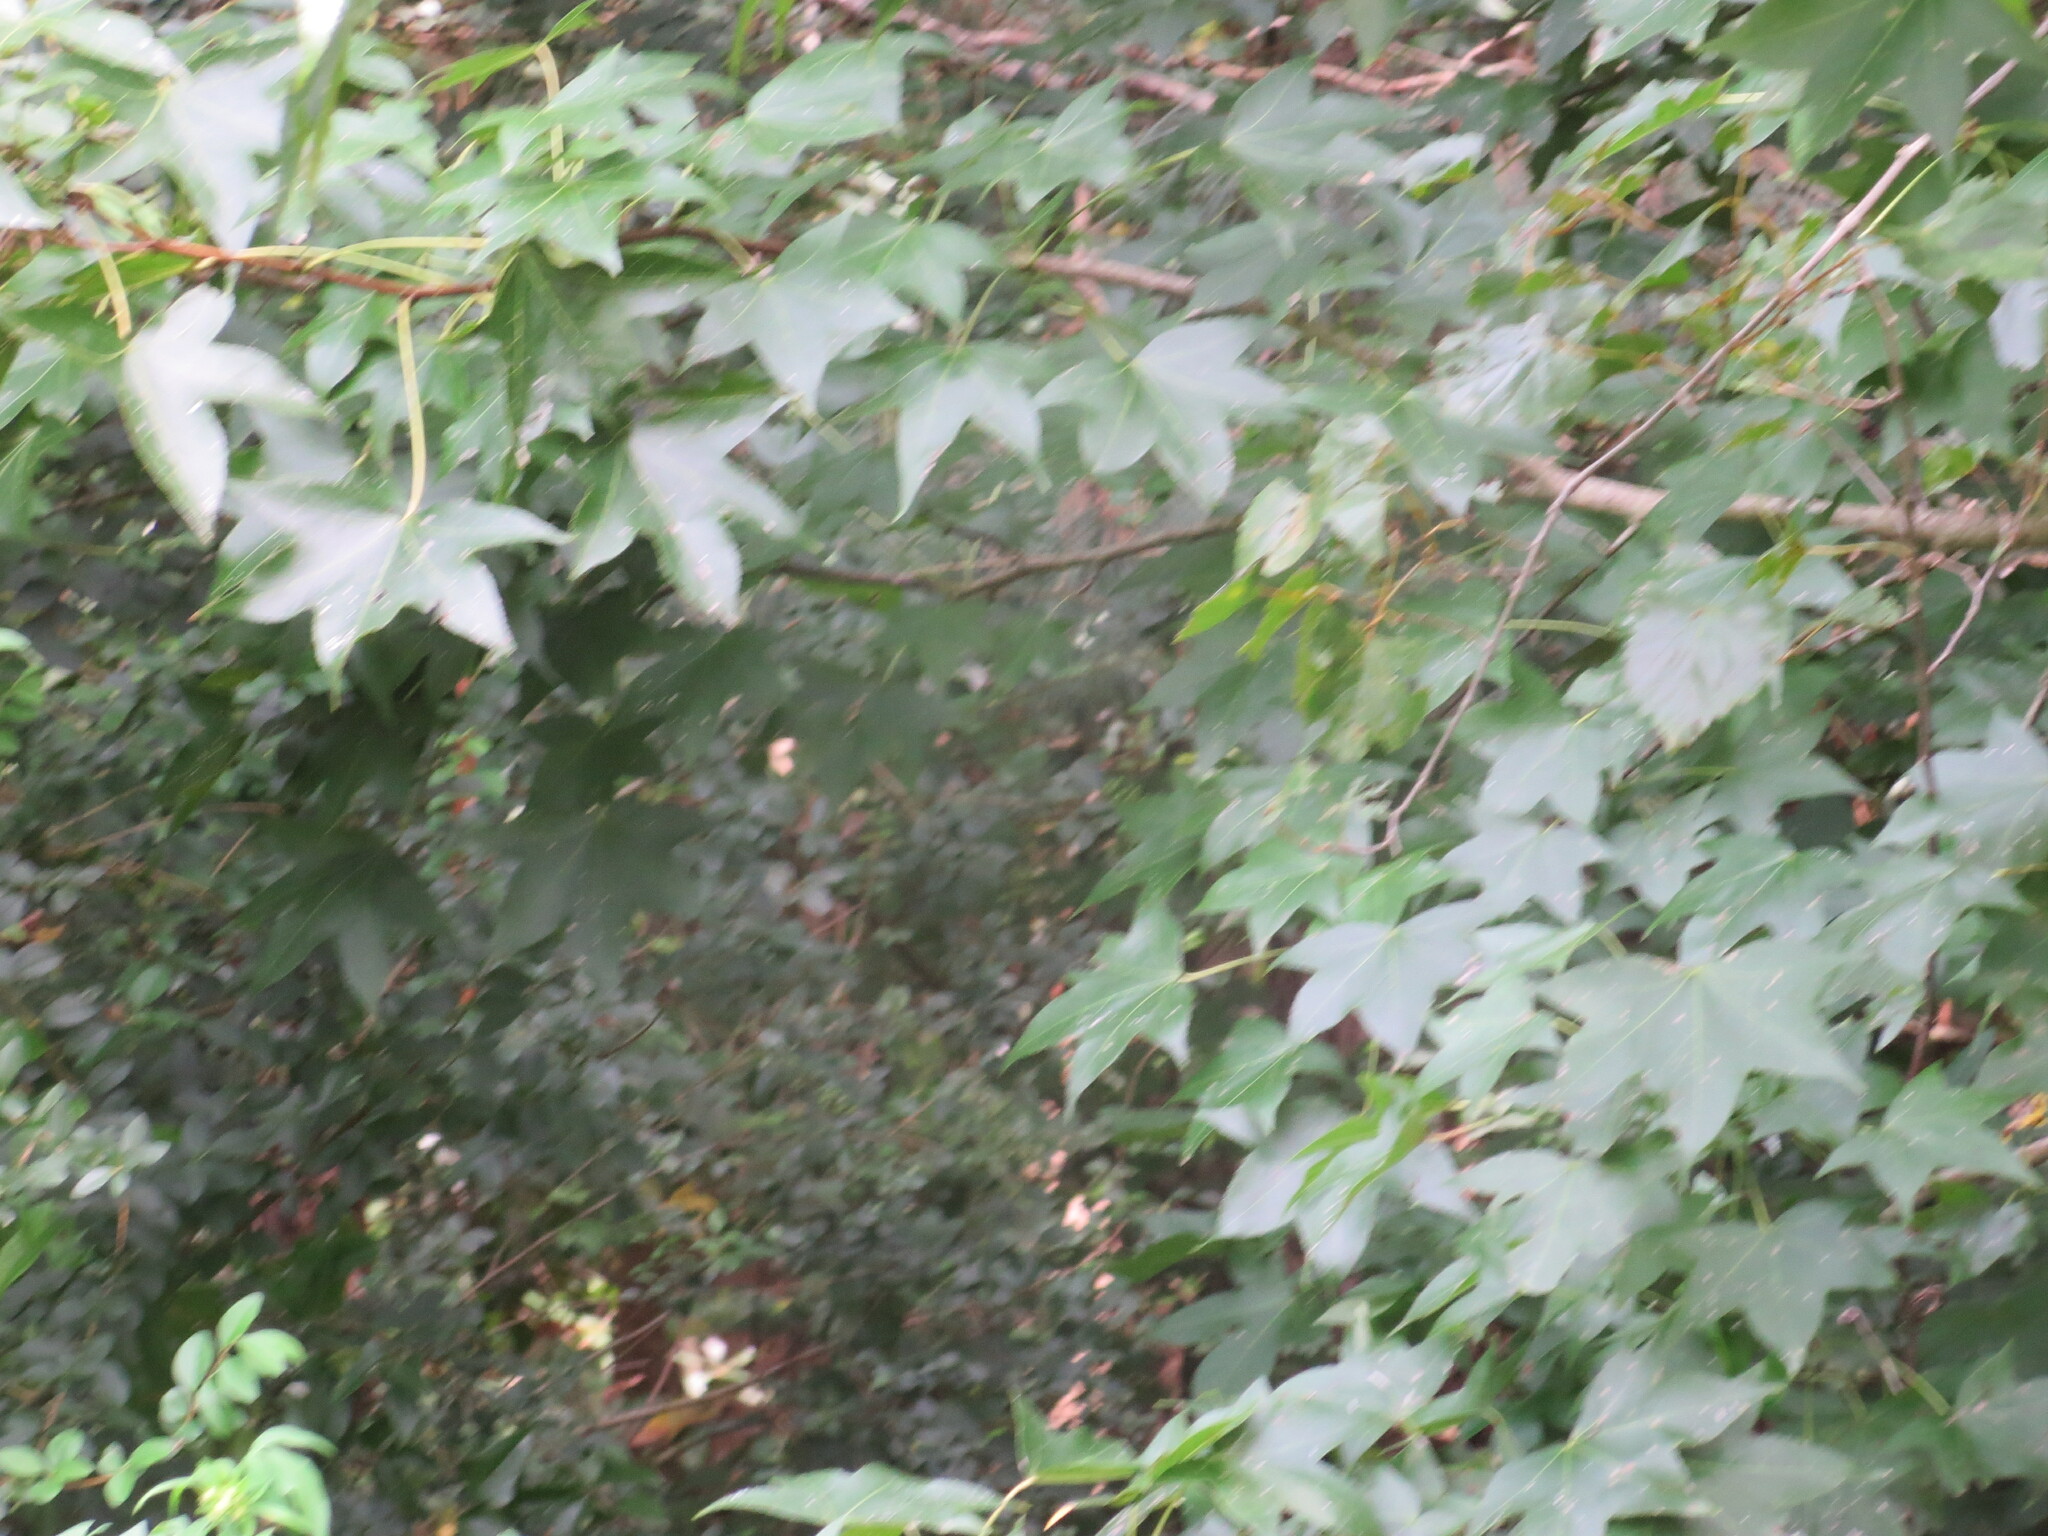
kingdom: Plantae
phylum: Tracheophyta
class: Magnoliopsida
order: Saxifragales
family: Altingiaceae
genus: Liquidambar
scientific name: Liquidambar styraciflua
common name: Sweet gum
